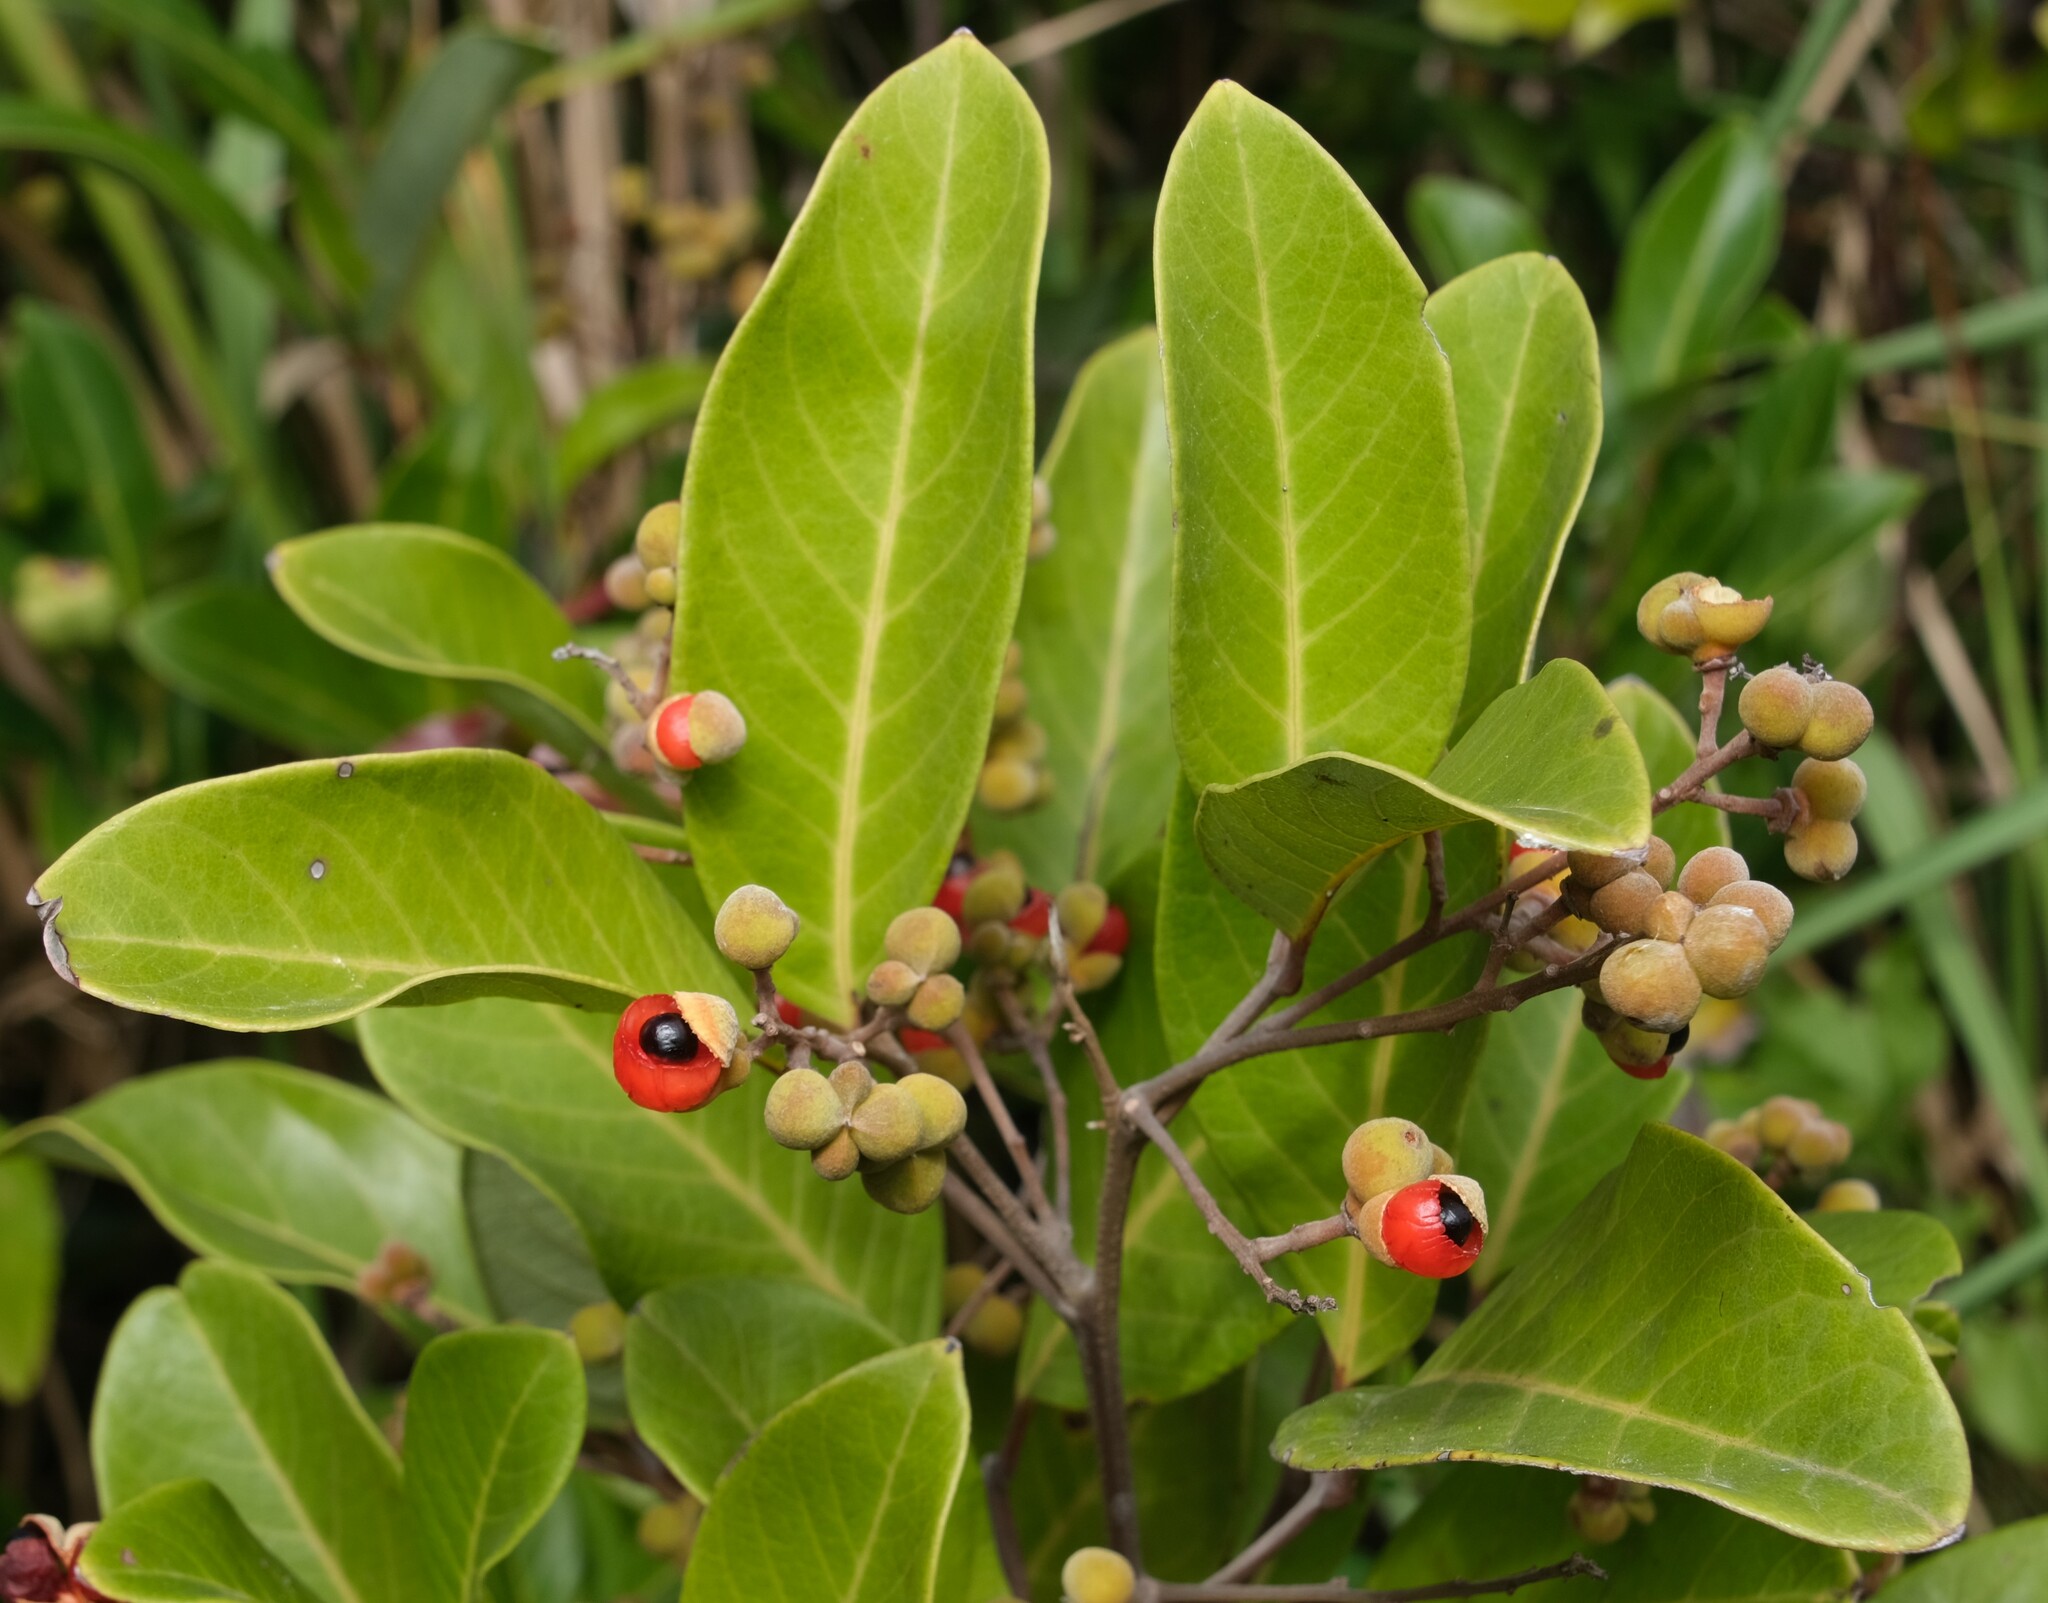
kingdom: Plantae
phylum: Tracheophyta
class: Magnoliopsida
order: Sapindales
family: Sapindaceae
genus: Alectryon
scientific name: Alectryon coriaceus
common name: Beach alectryon
